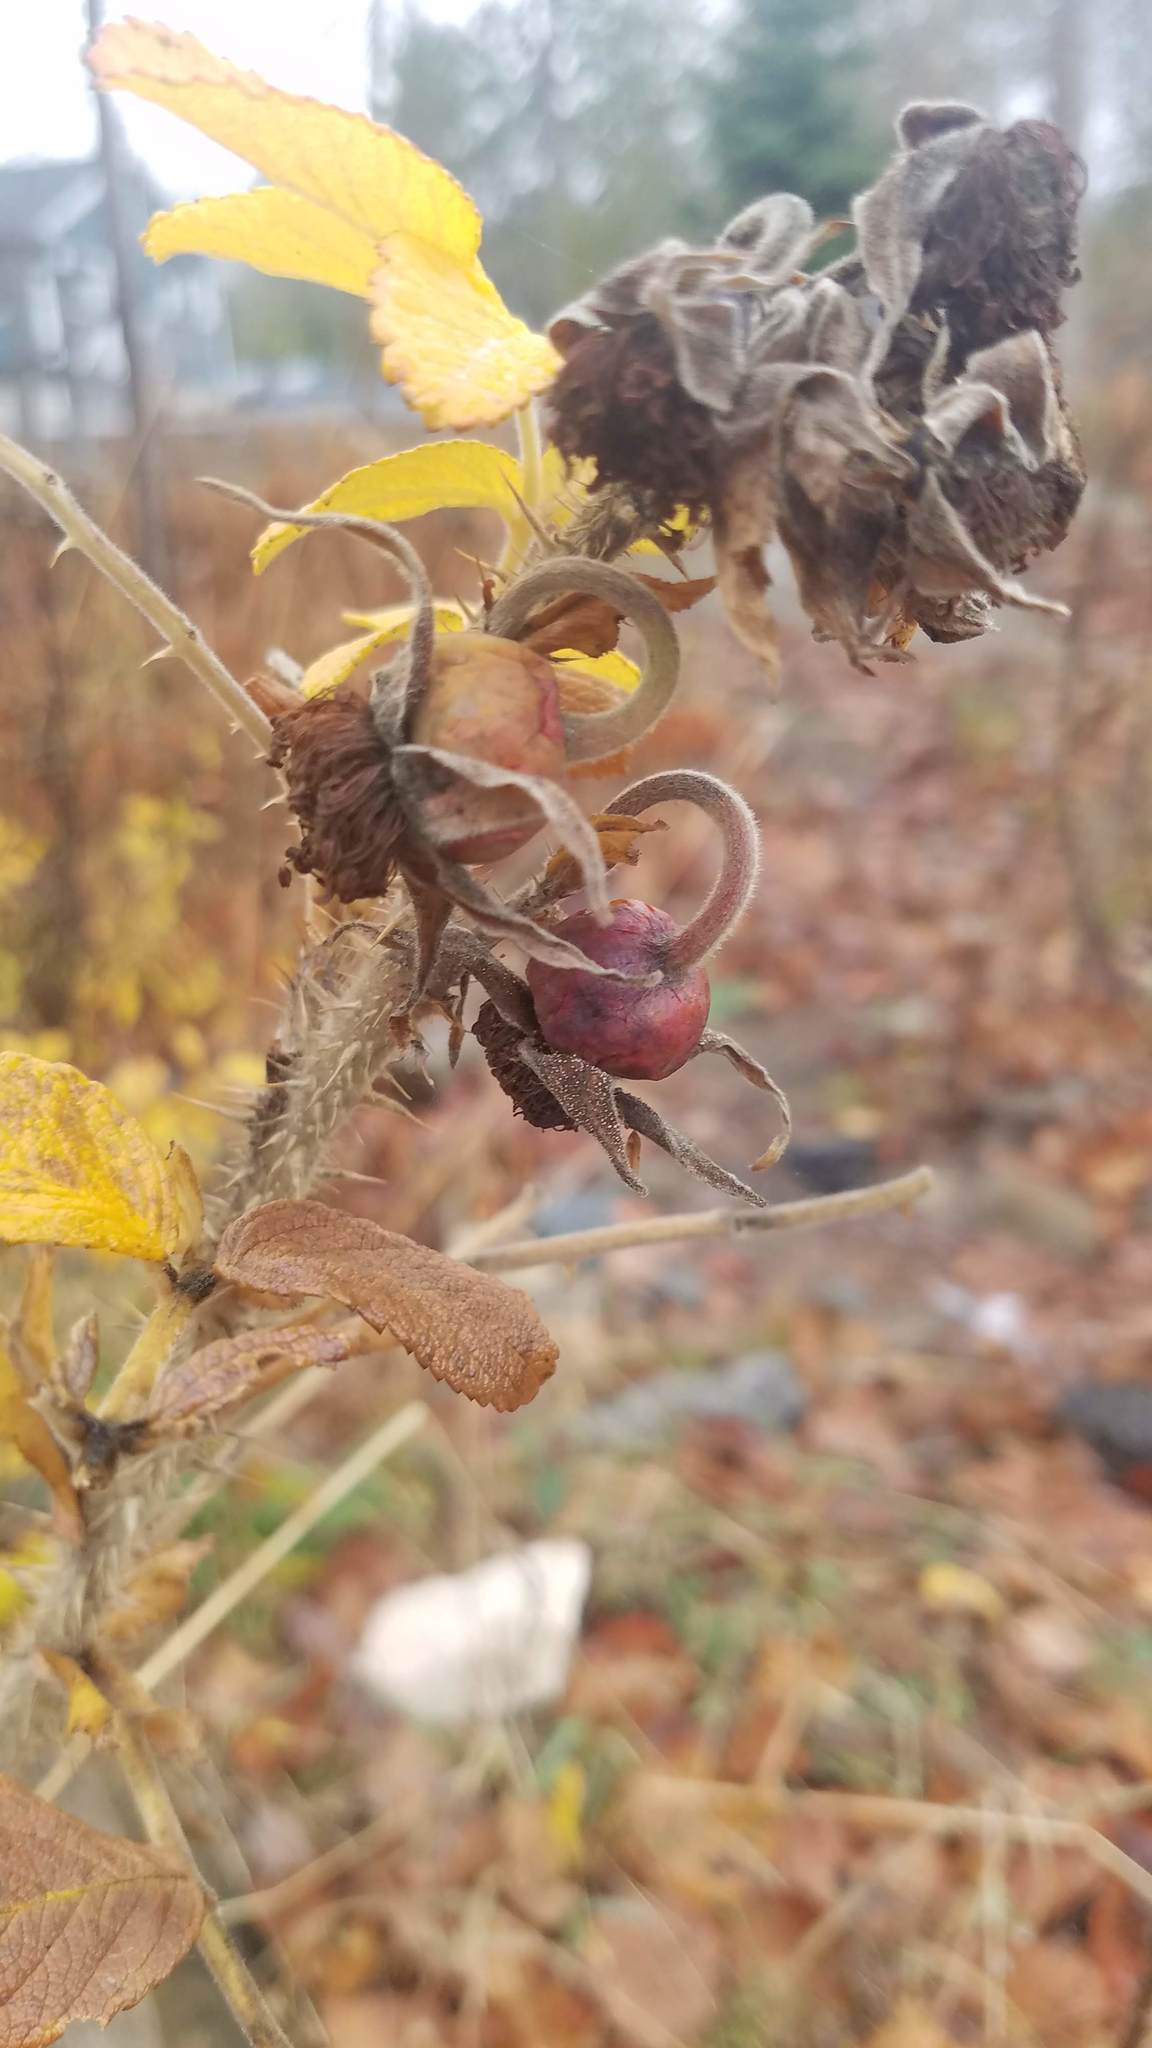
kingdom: Plantae
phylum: Tracheophyta
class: Magnoliopsida
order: Rosales
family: Rosaceae
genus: Rosa
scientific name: Rosa rugosa
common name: Japanese rose
